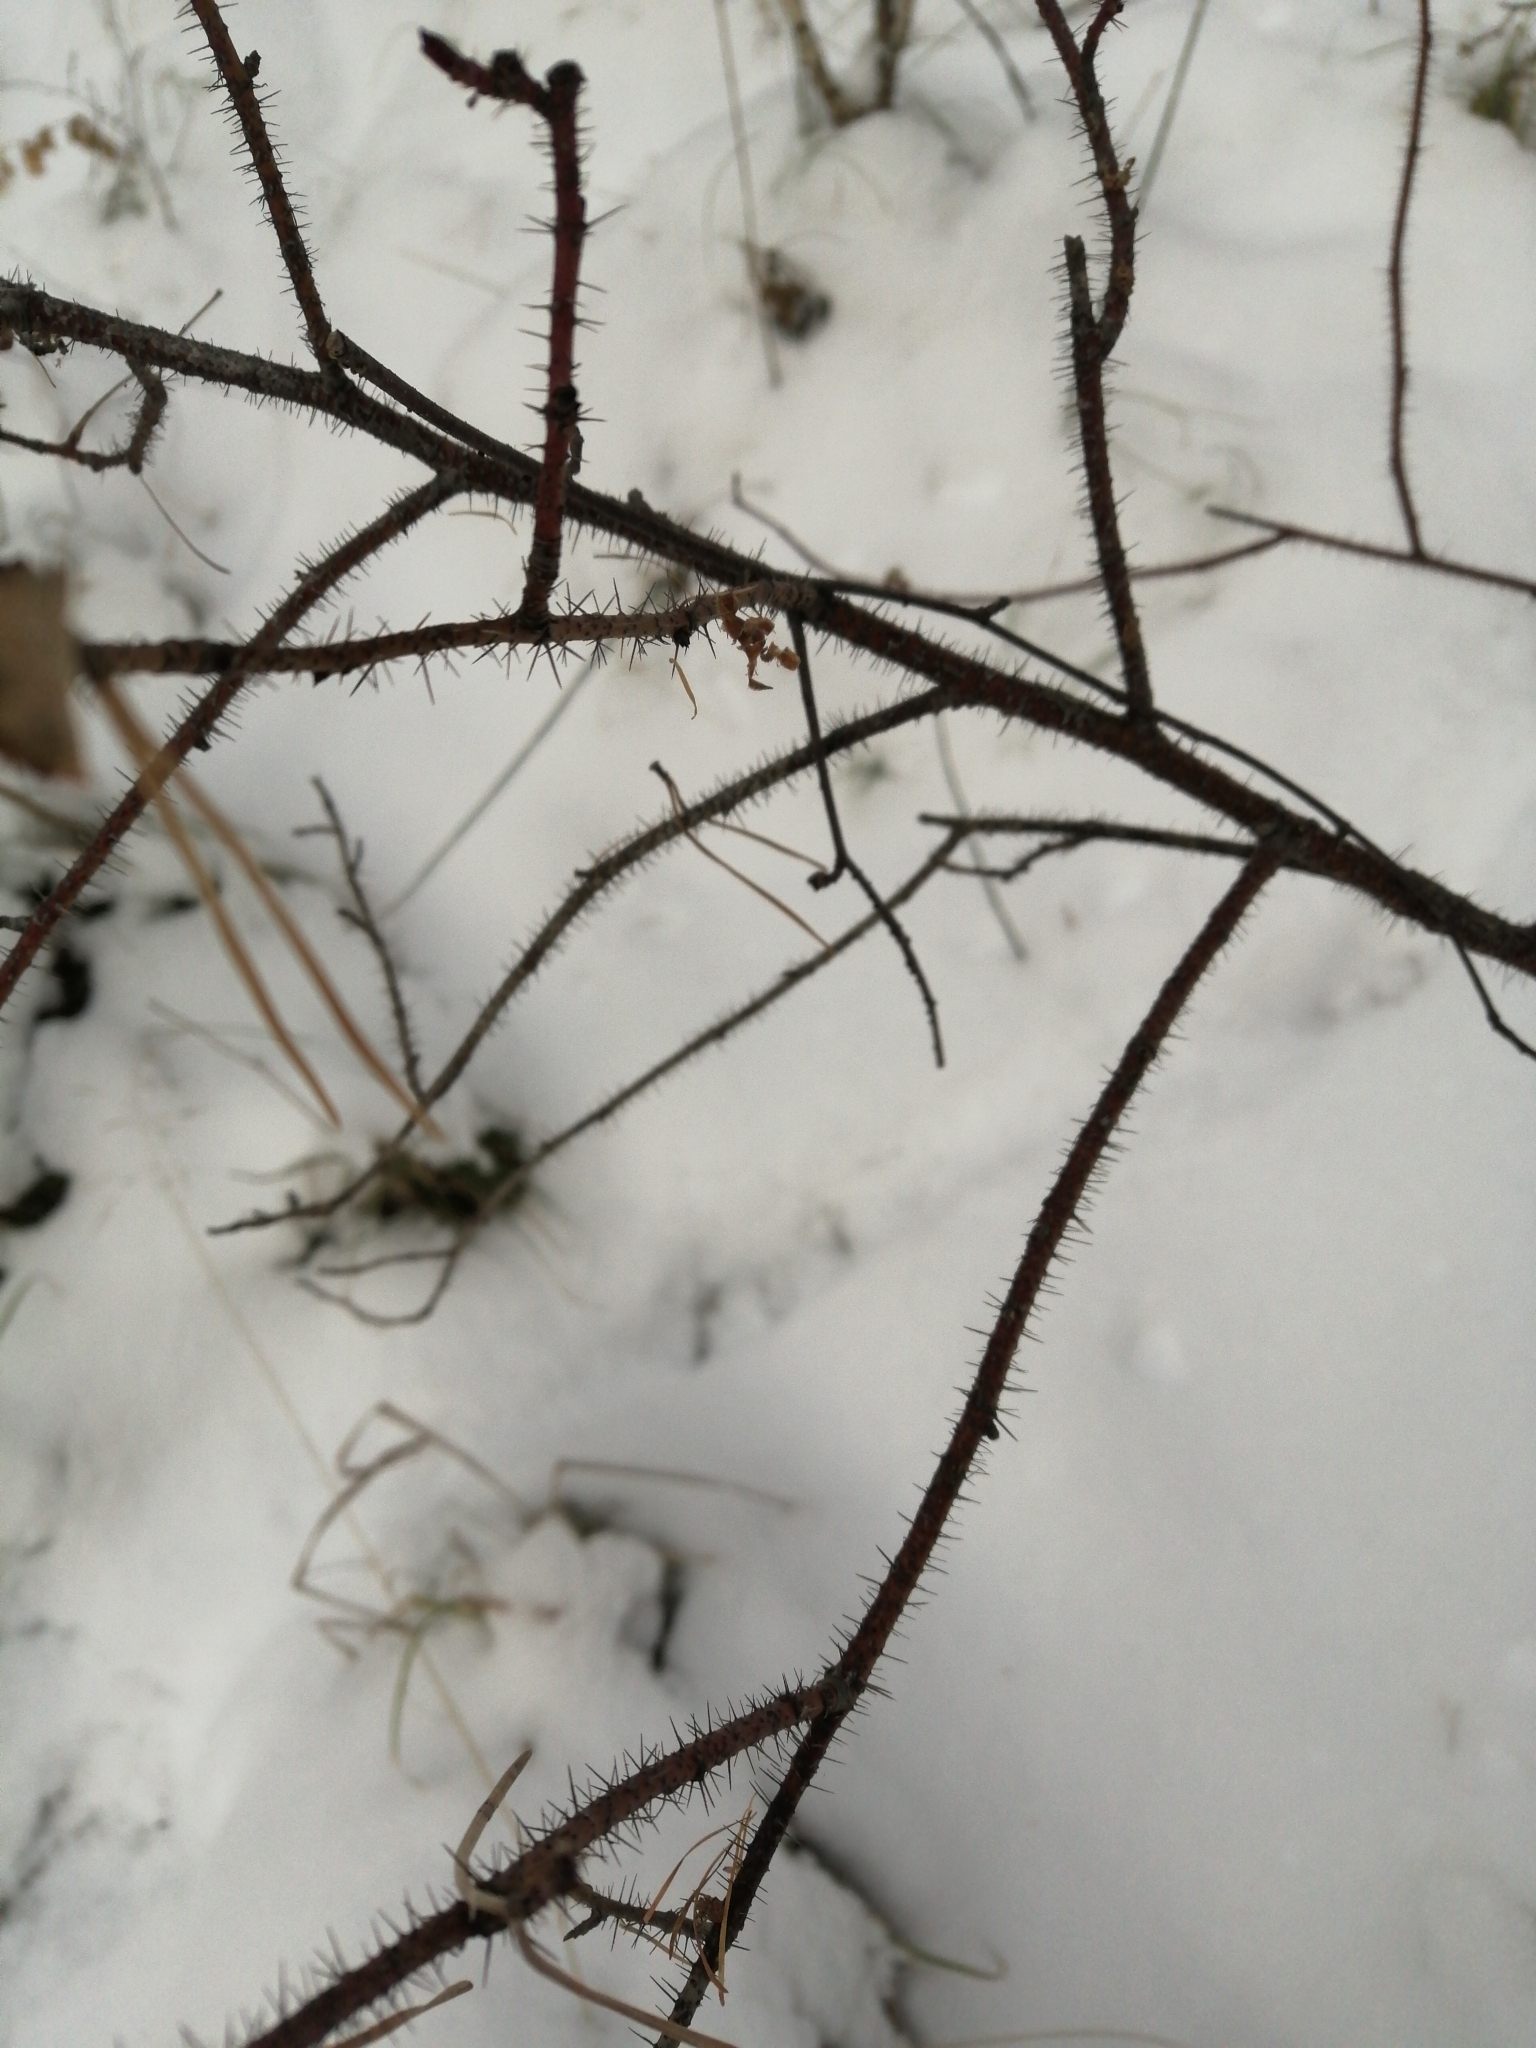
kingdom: Plantae
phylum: Tracheophyta
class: Magnoliopsida
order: Rosales
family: Rosaceae
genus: Rosa
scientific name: Rosa acicularis
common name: Prickly rose
